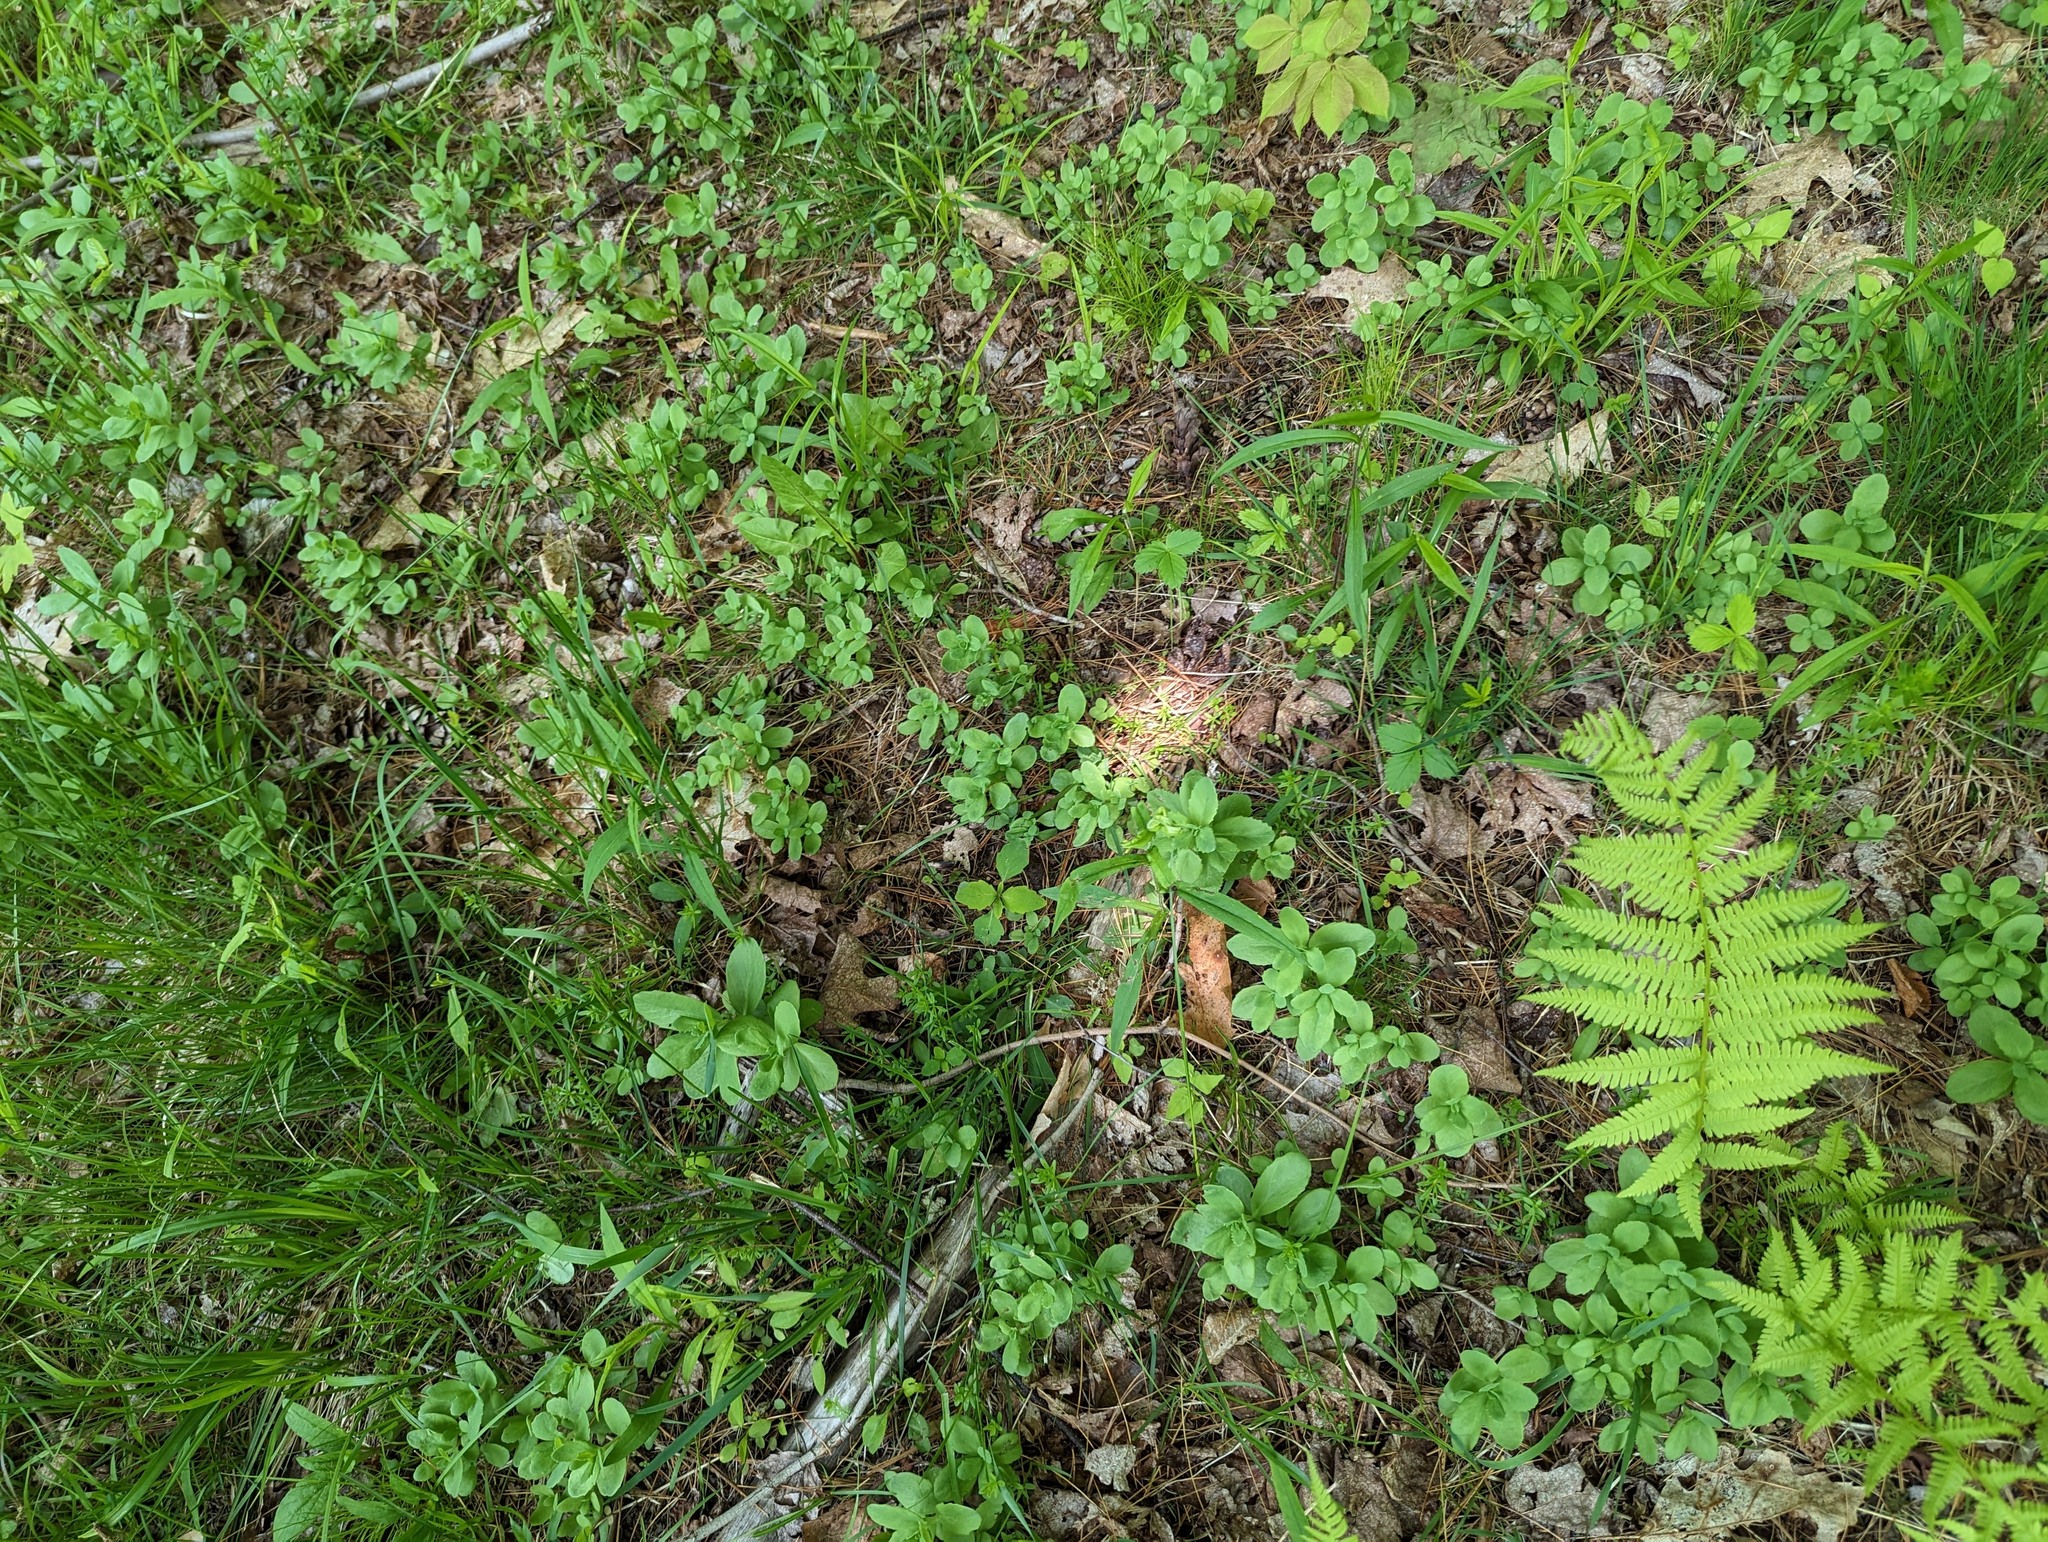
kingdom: Plantae
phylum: Tracheophyta
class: Magnoliopsida
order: Saxifragales
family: Crassulaceae
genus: Hylotelephium
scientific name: Hylotelephium telephium
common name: Live-forever
